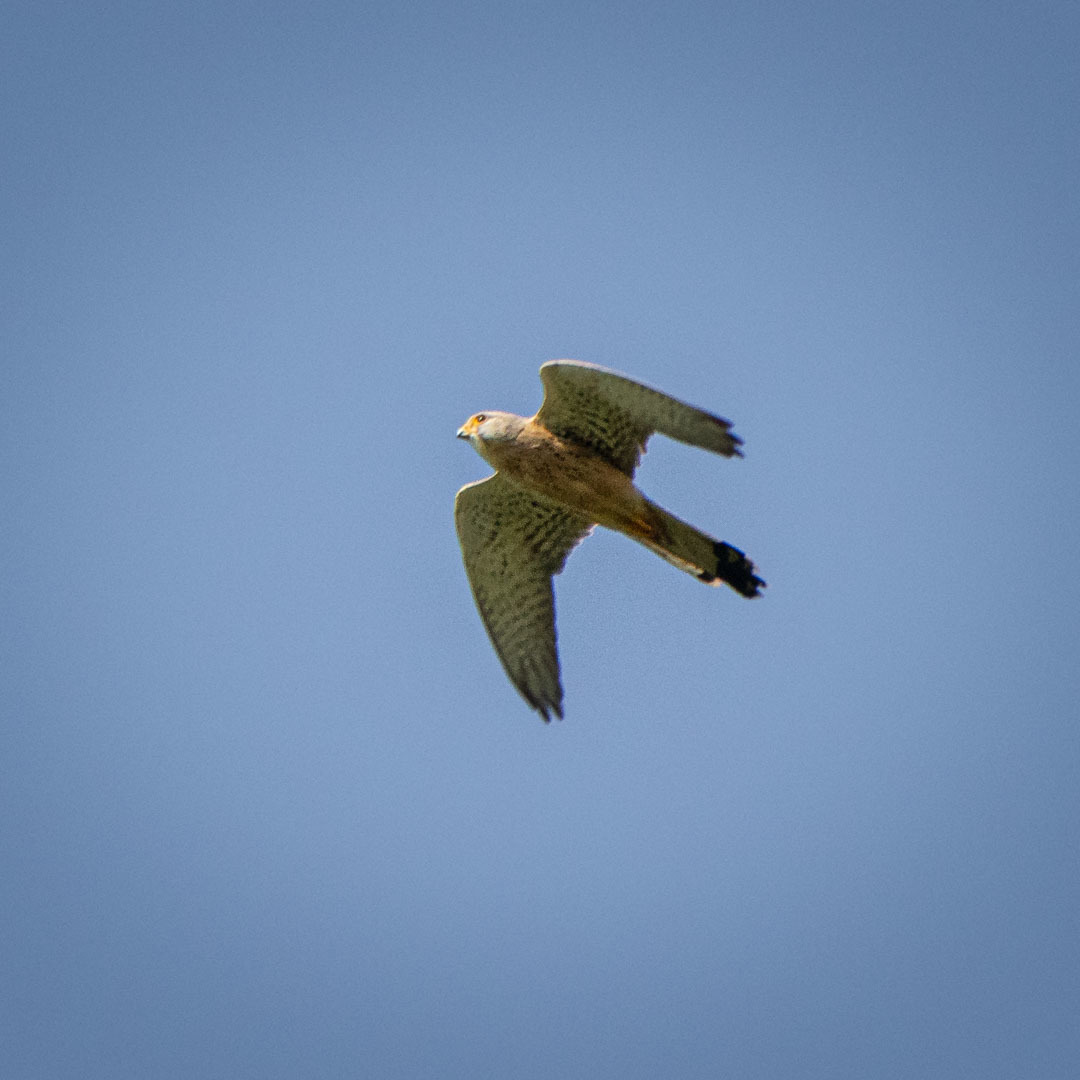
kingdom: Animalia
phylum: Chordata
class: Aves
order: Falconiformes
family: Falconidae
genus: Falco
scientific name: Falco tinnunculus
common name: Common kestrel
